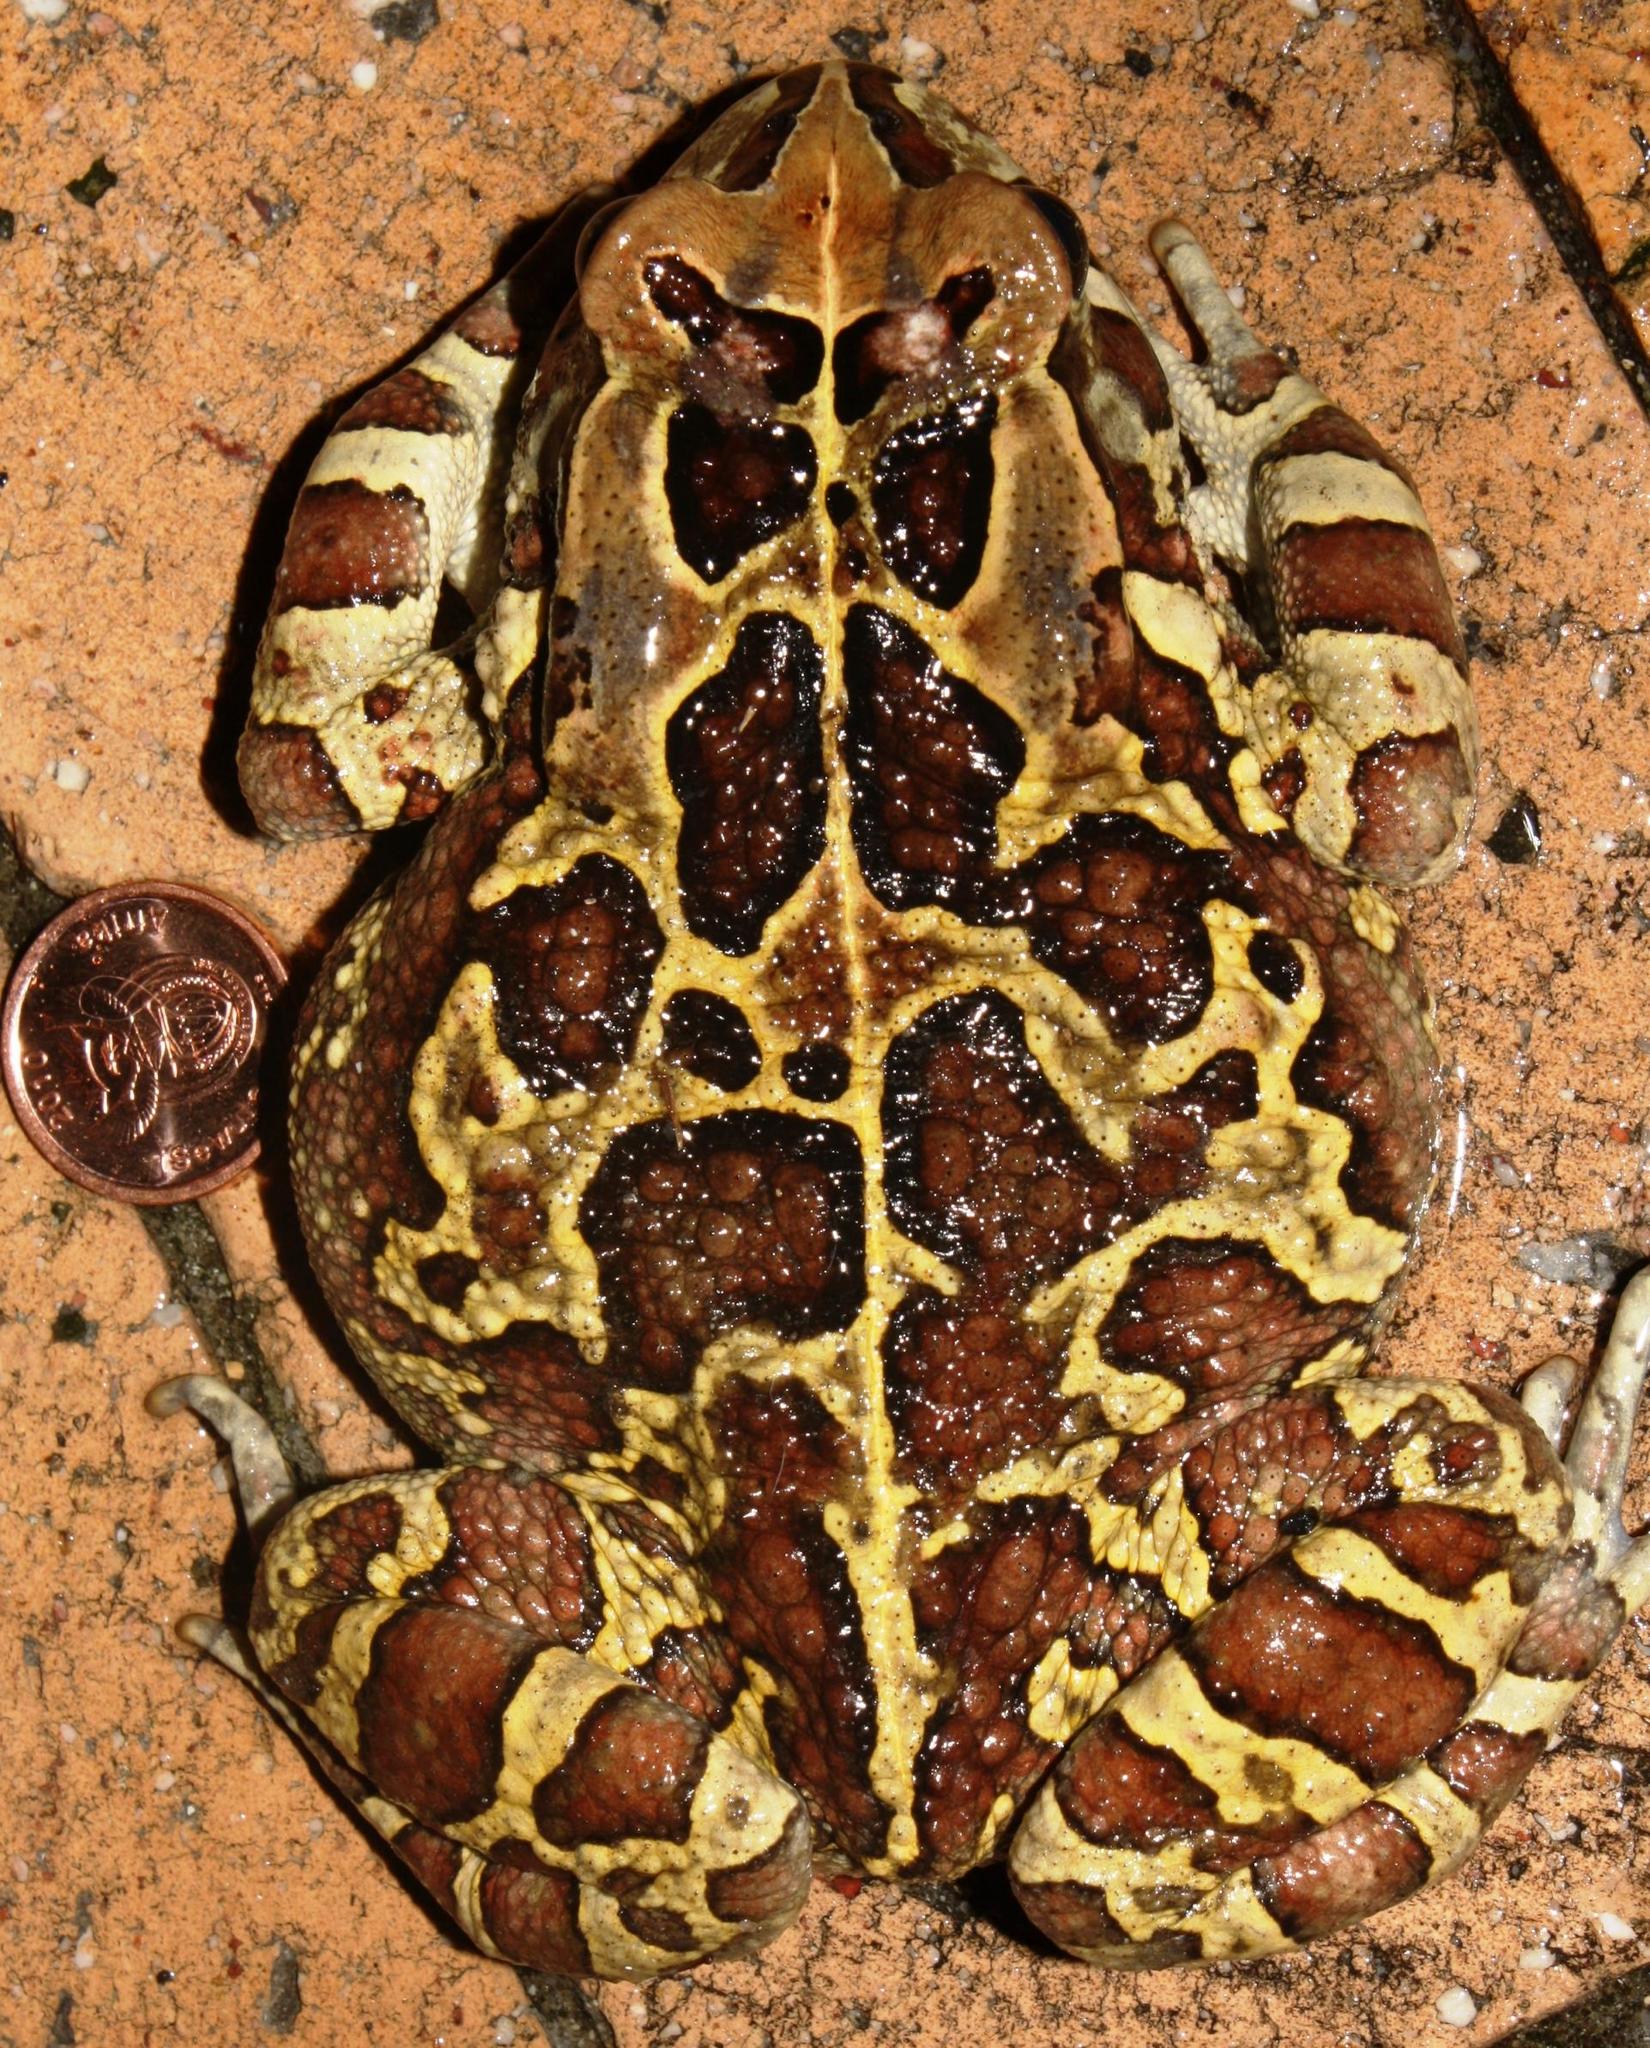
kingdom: Animalia
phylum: Chordata
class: Amphibia
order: Anura
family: Bufonidae
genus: Sclerophrys
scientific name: Sclerophrys pantherina
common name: Panther toad
